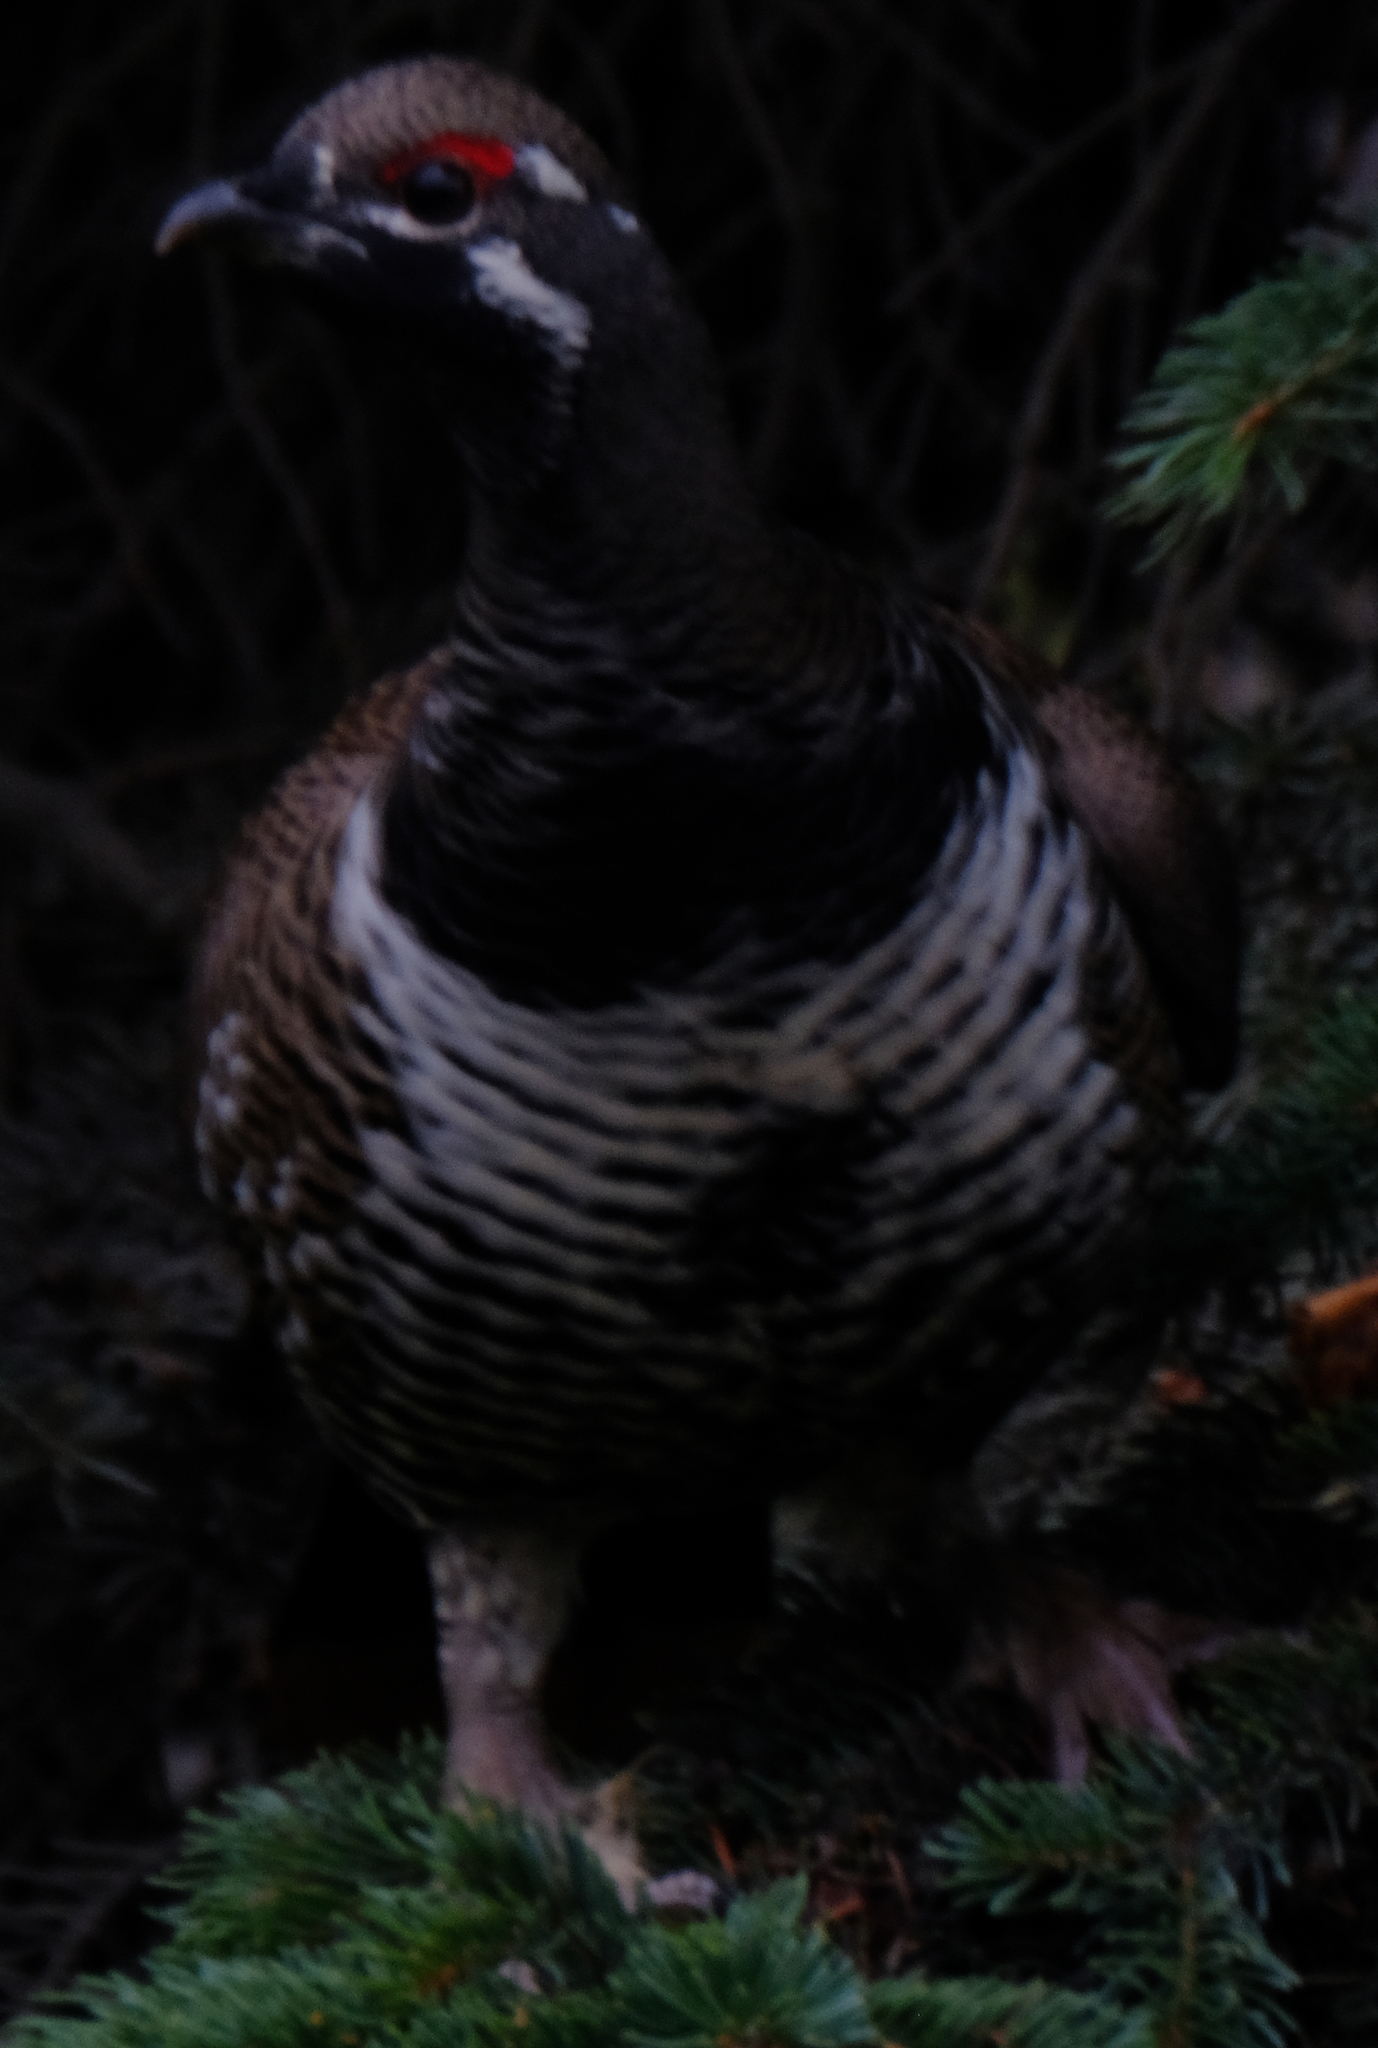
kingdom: Animalia
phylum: Chordata
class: Aves
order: Galliformes
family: Phasianidae
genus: Canachites
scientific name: Canachites canadensis
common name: Spruce grouse
